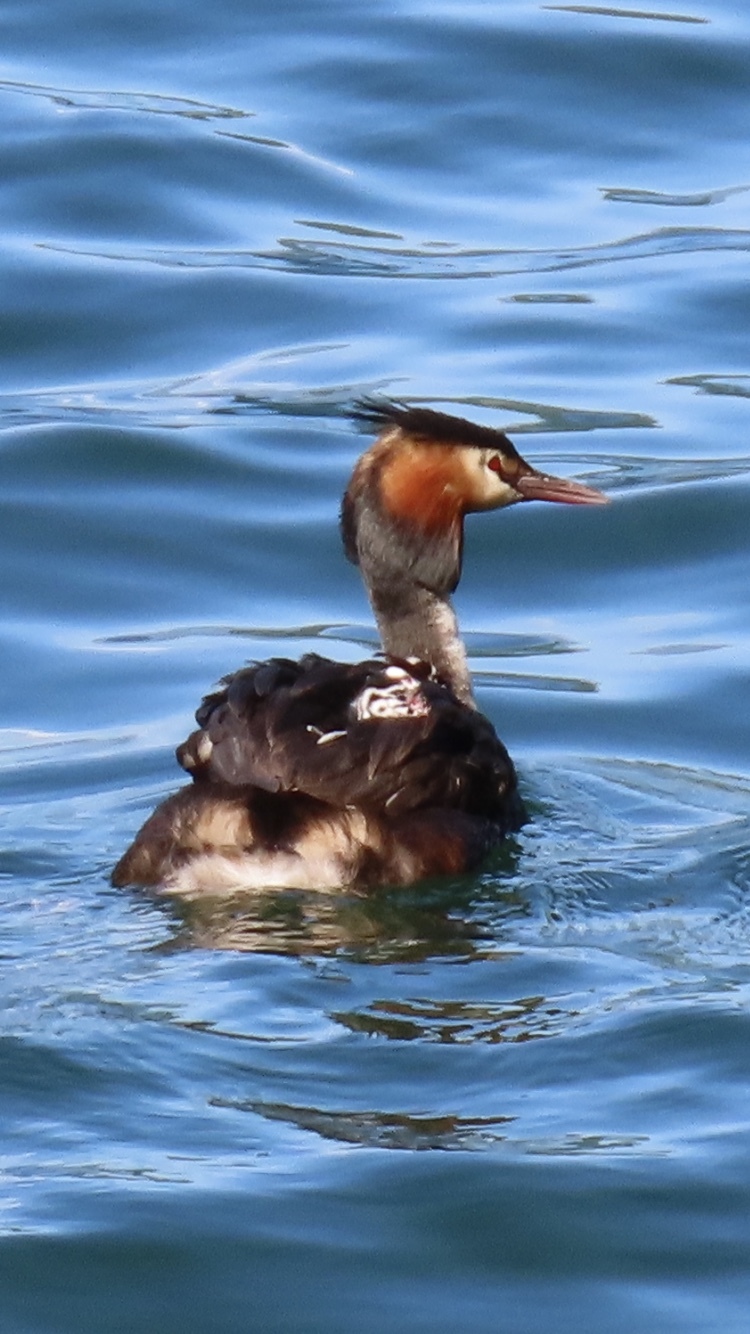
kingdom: Animalia
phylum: Chordata
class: Aves
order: Podicipediformes
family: Podicipedidae
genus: Podiceps
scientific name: Podiceps cristatus
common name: Great crested grebe
